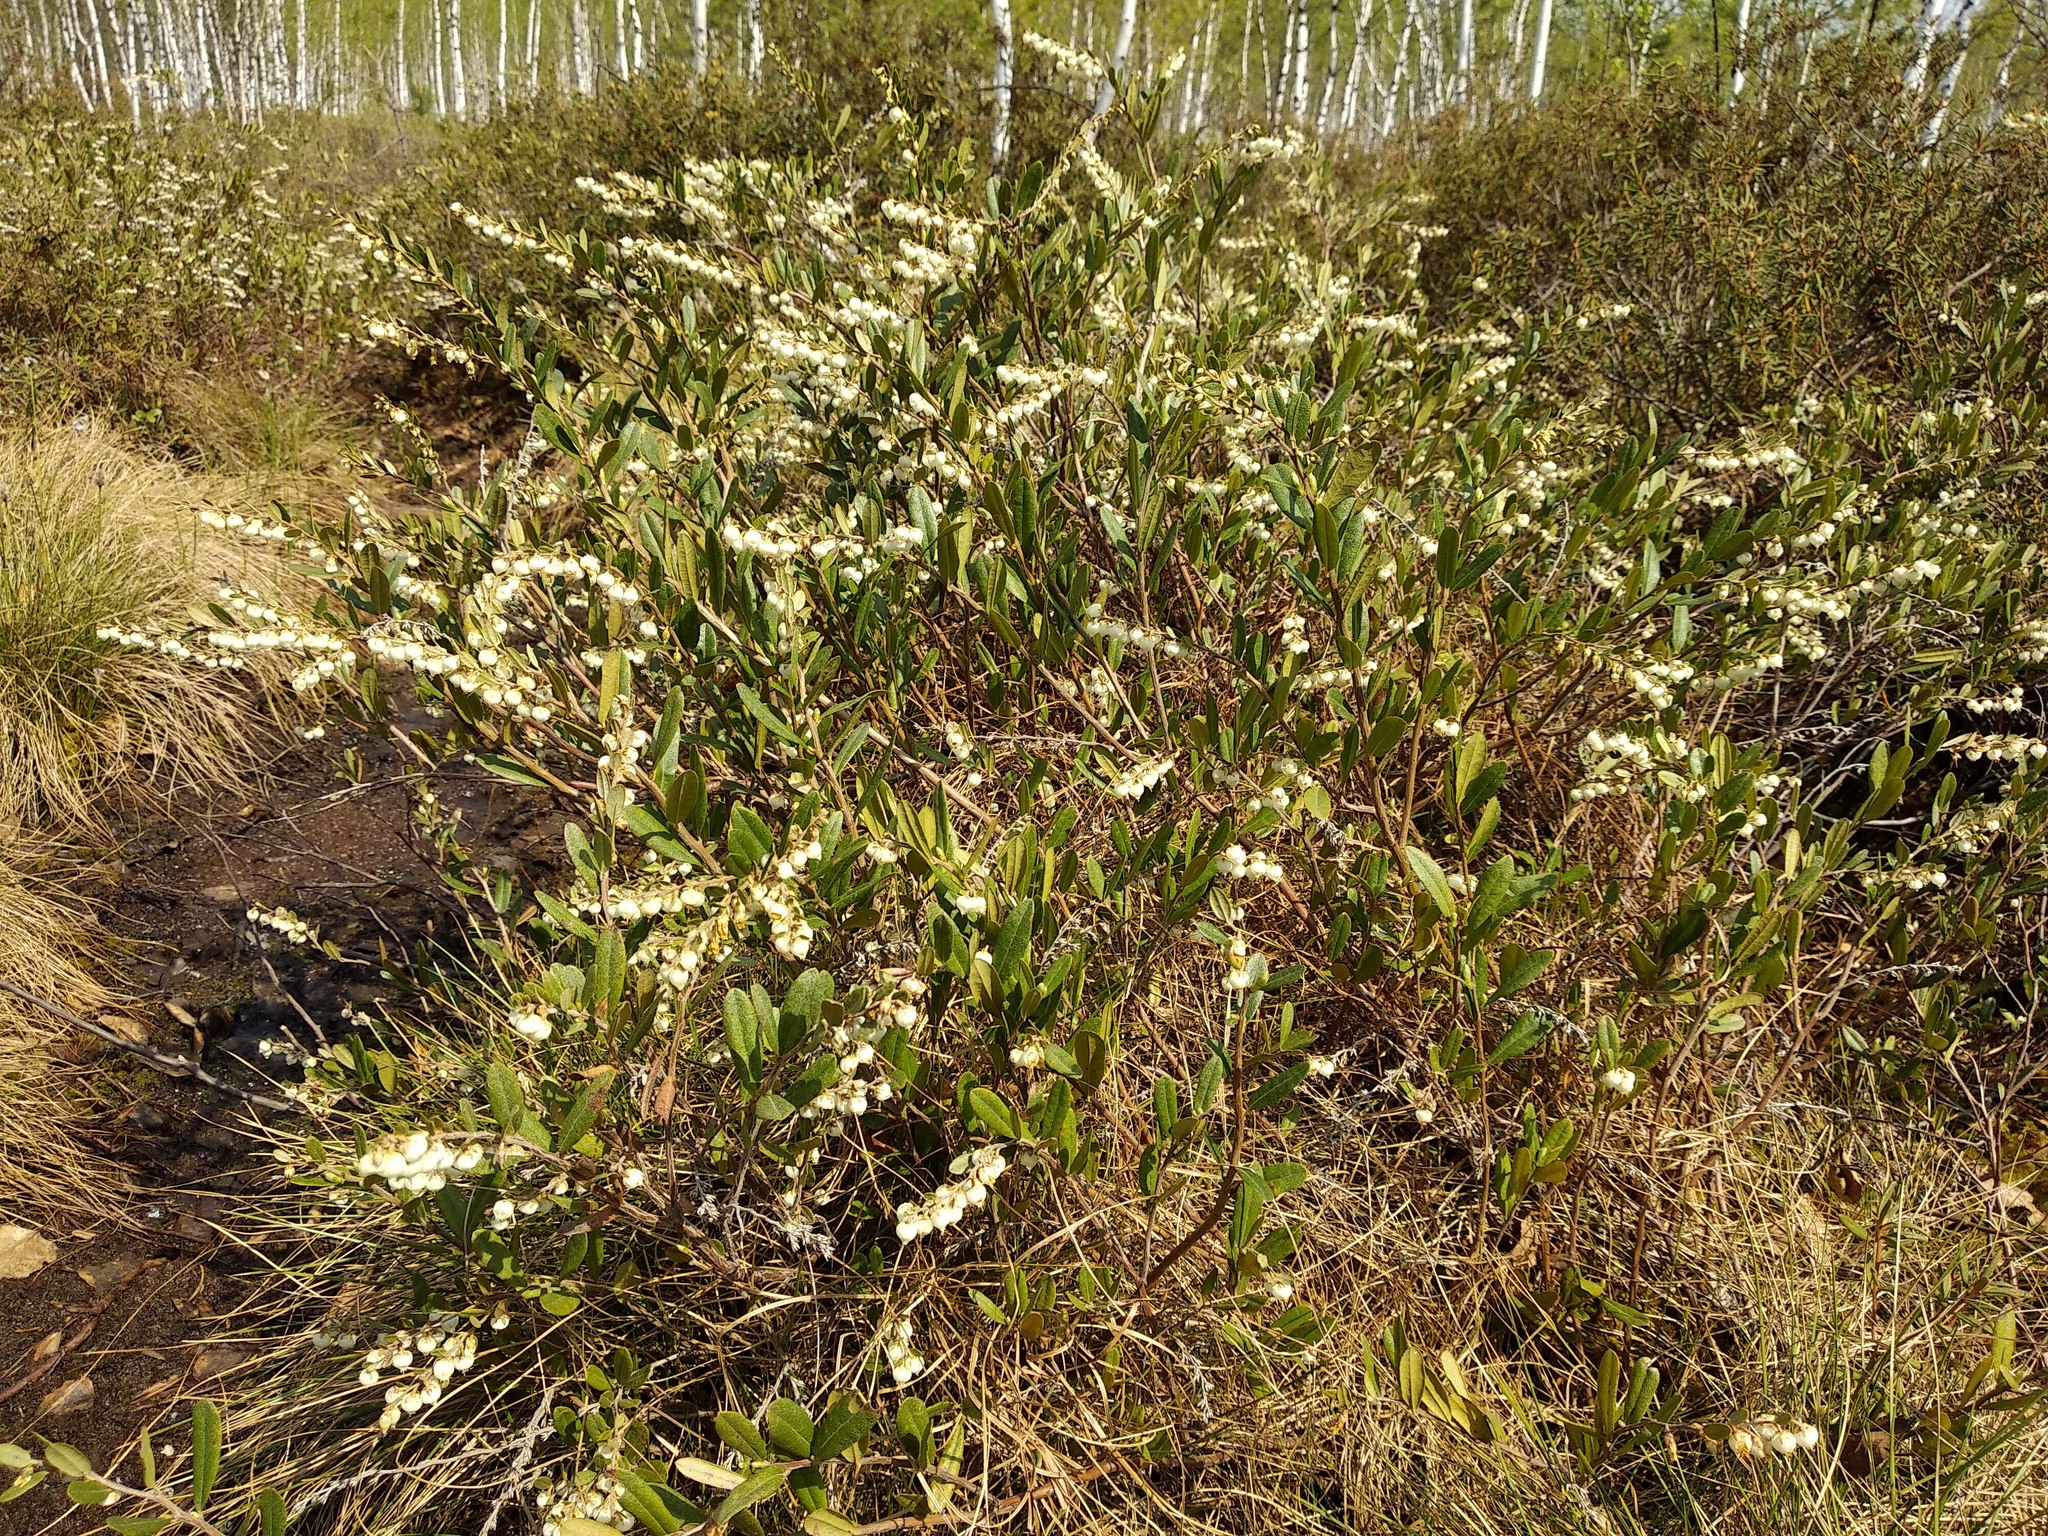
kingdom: Plantae
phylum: Tracheophyta
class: Magnoliopsida
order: Ericales
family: Ericaceae
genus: Chamaedaphne
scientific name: Chamaedaphne calyculata
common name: Leatherleaf
